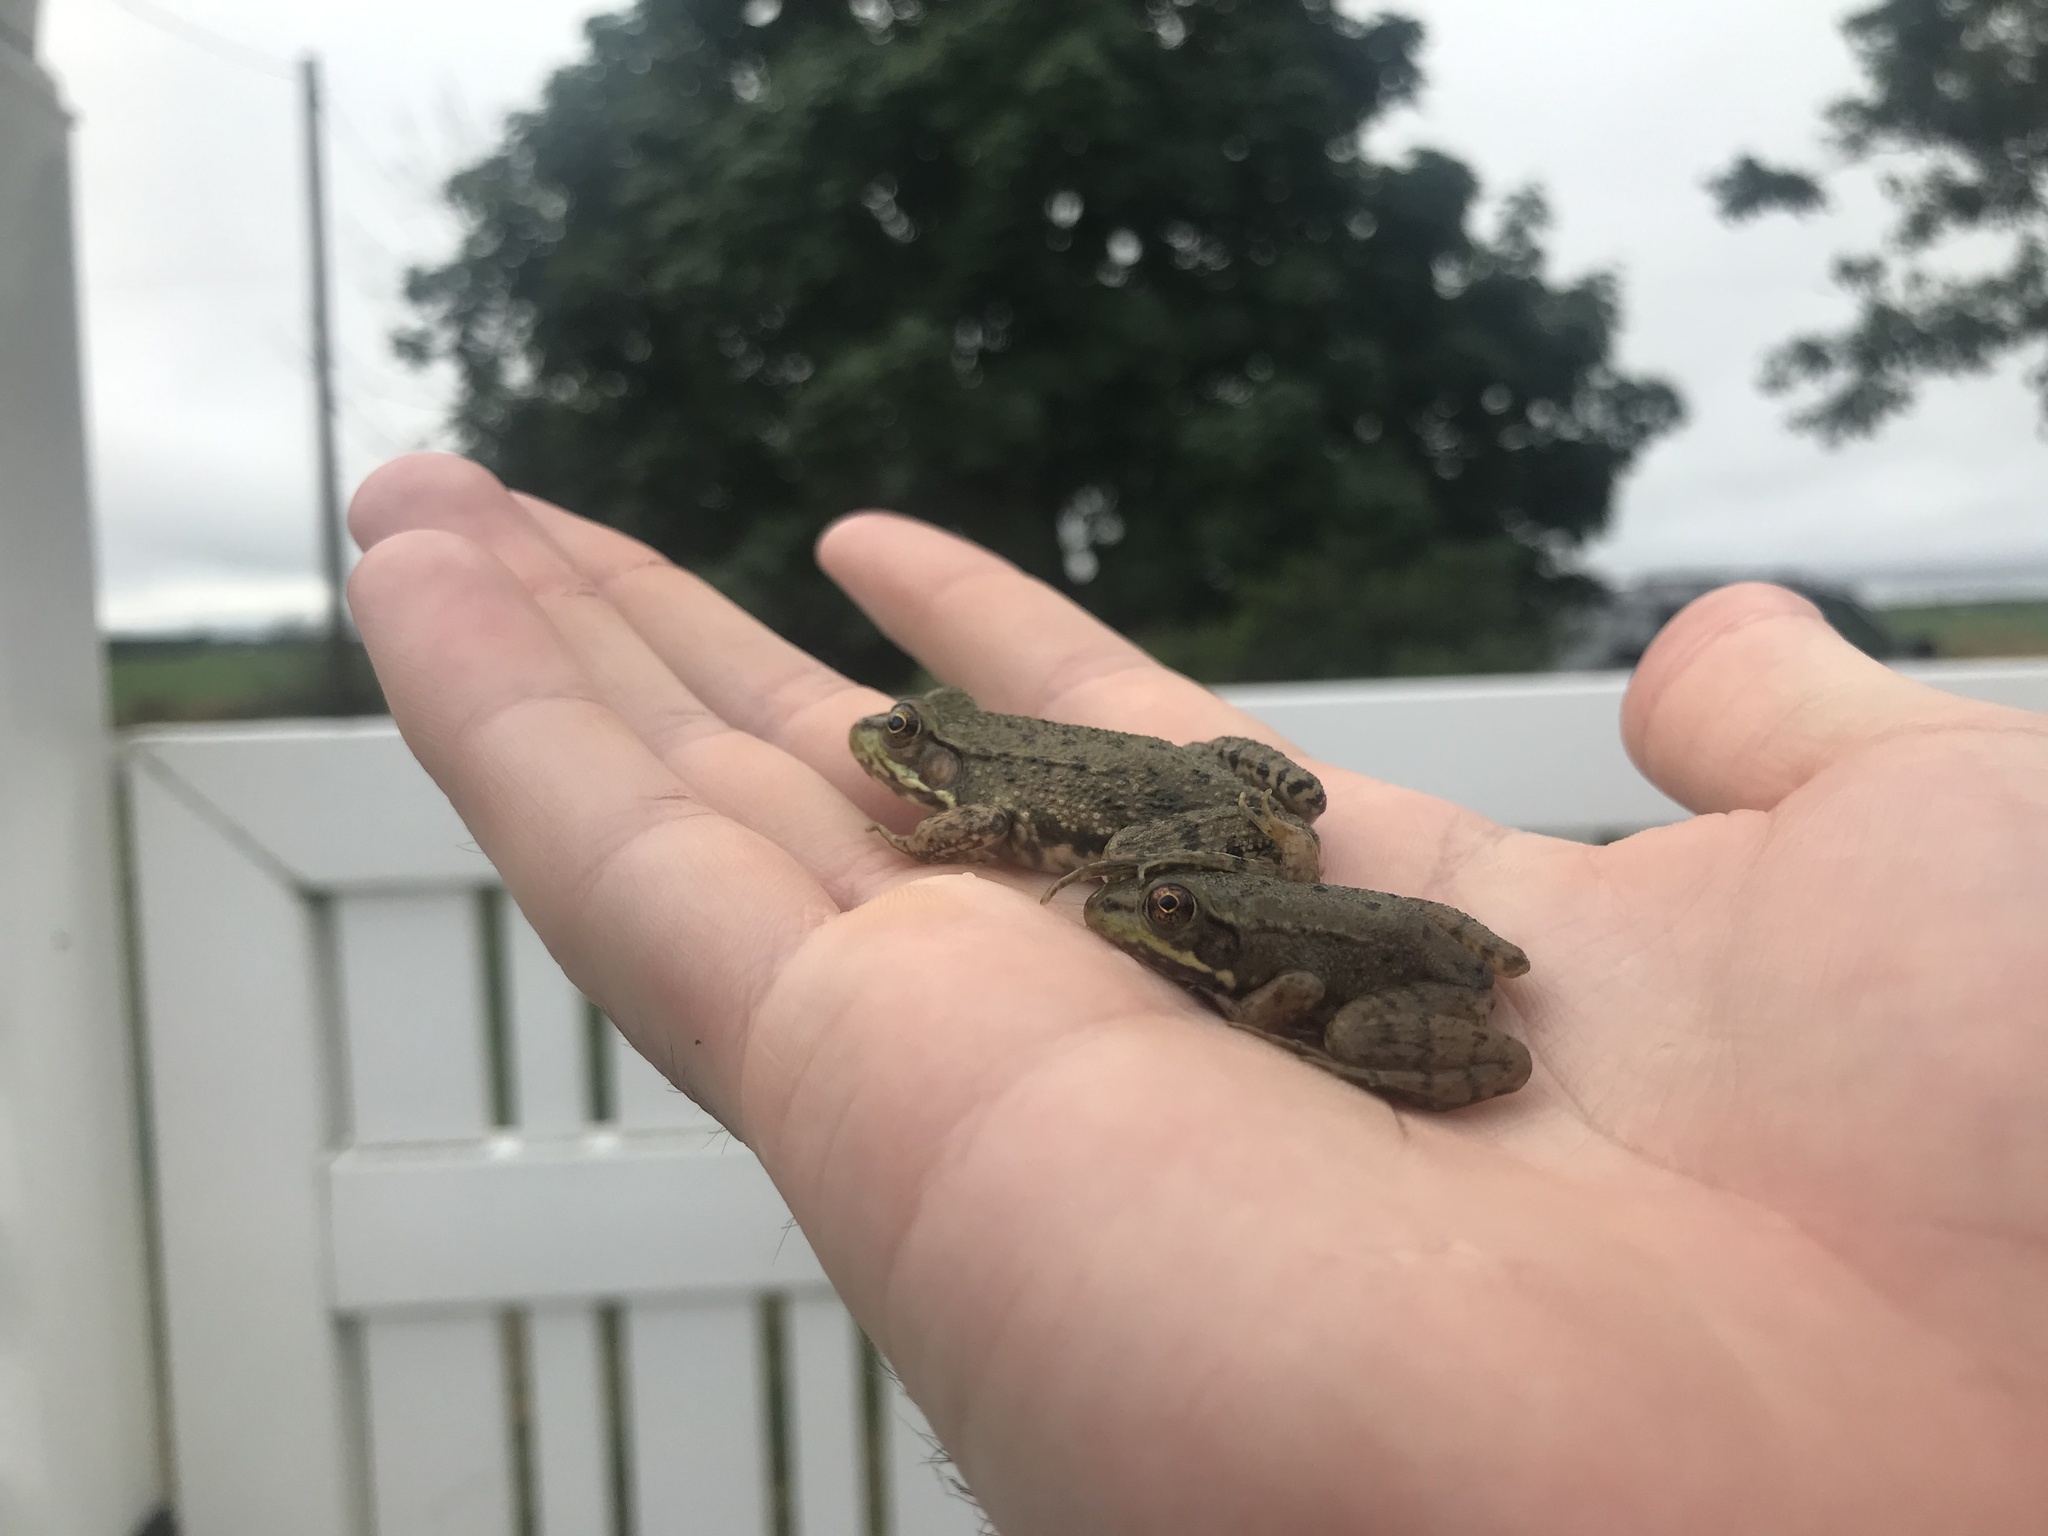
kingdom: Animalia
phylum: Chordata
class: Amphibia
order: Anura
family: Ranidae
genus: Lithobates
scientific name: Lithobates clamitans
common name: Green frog
